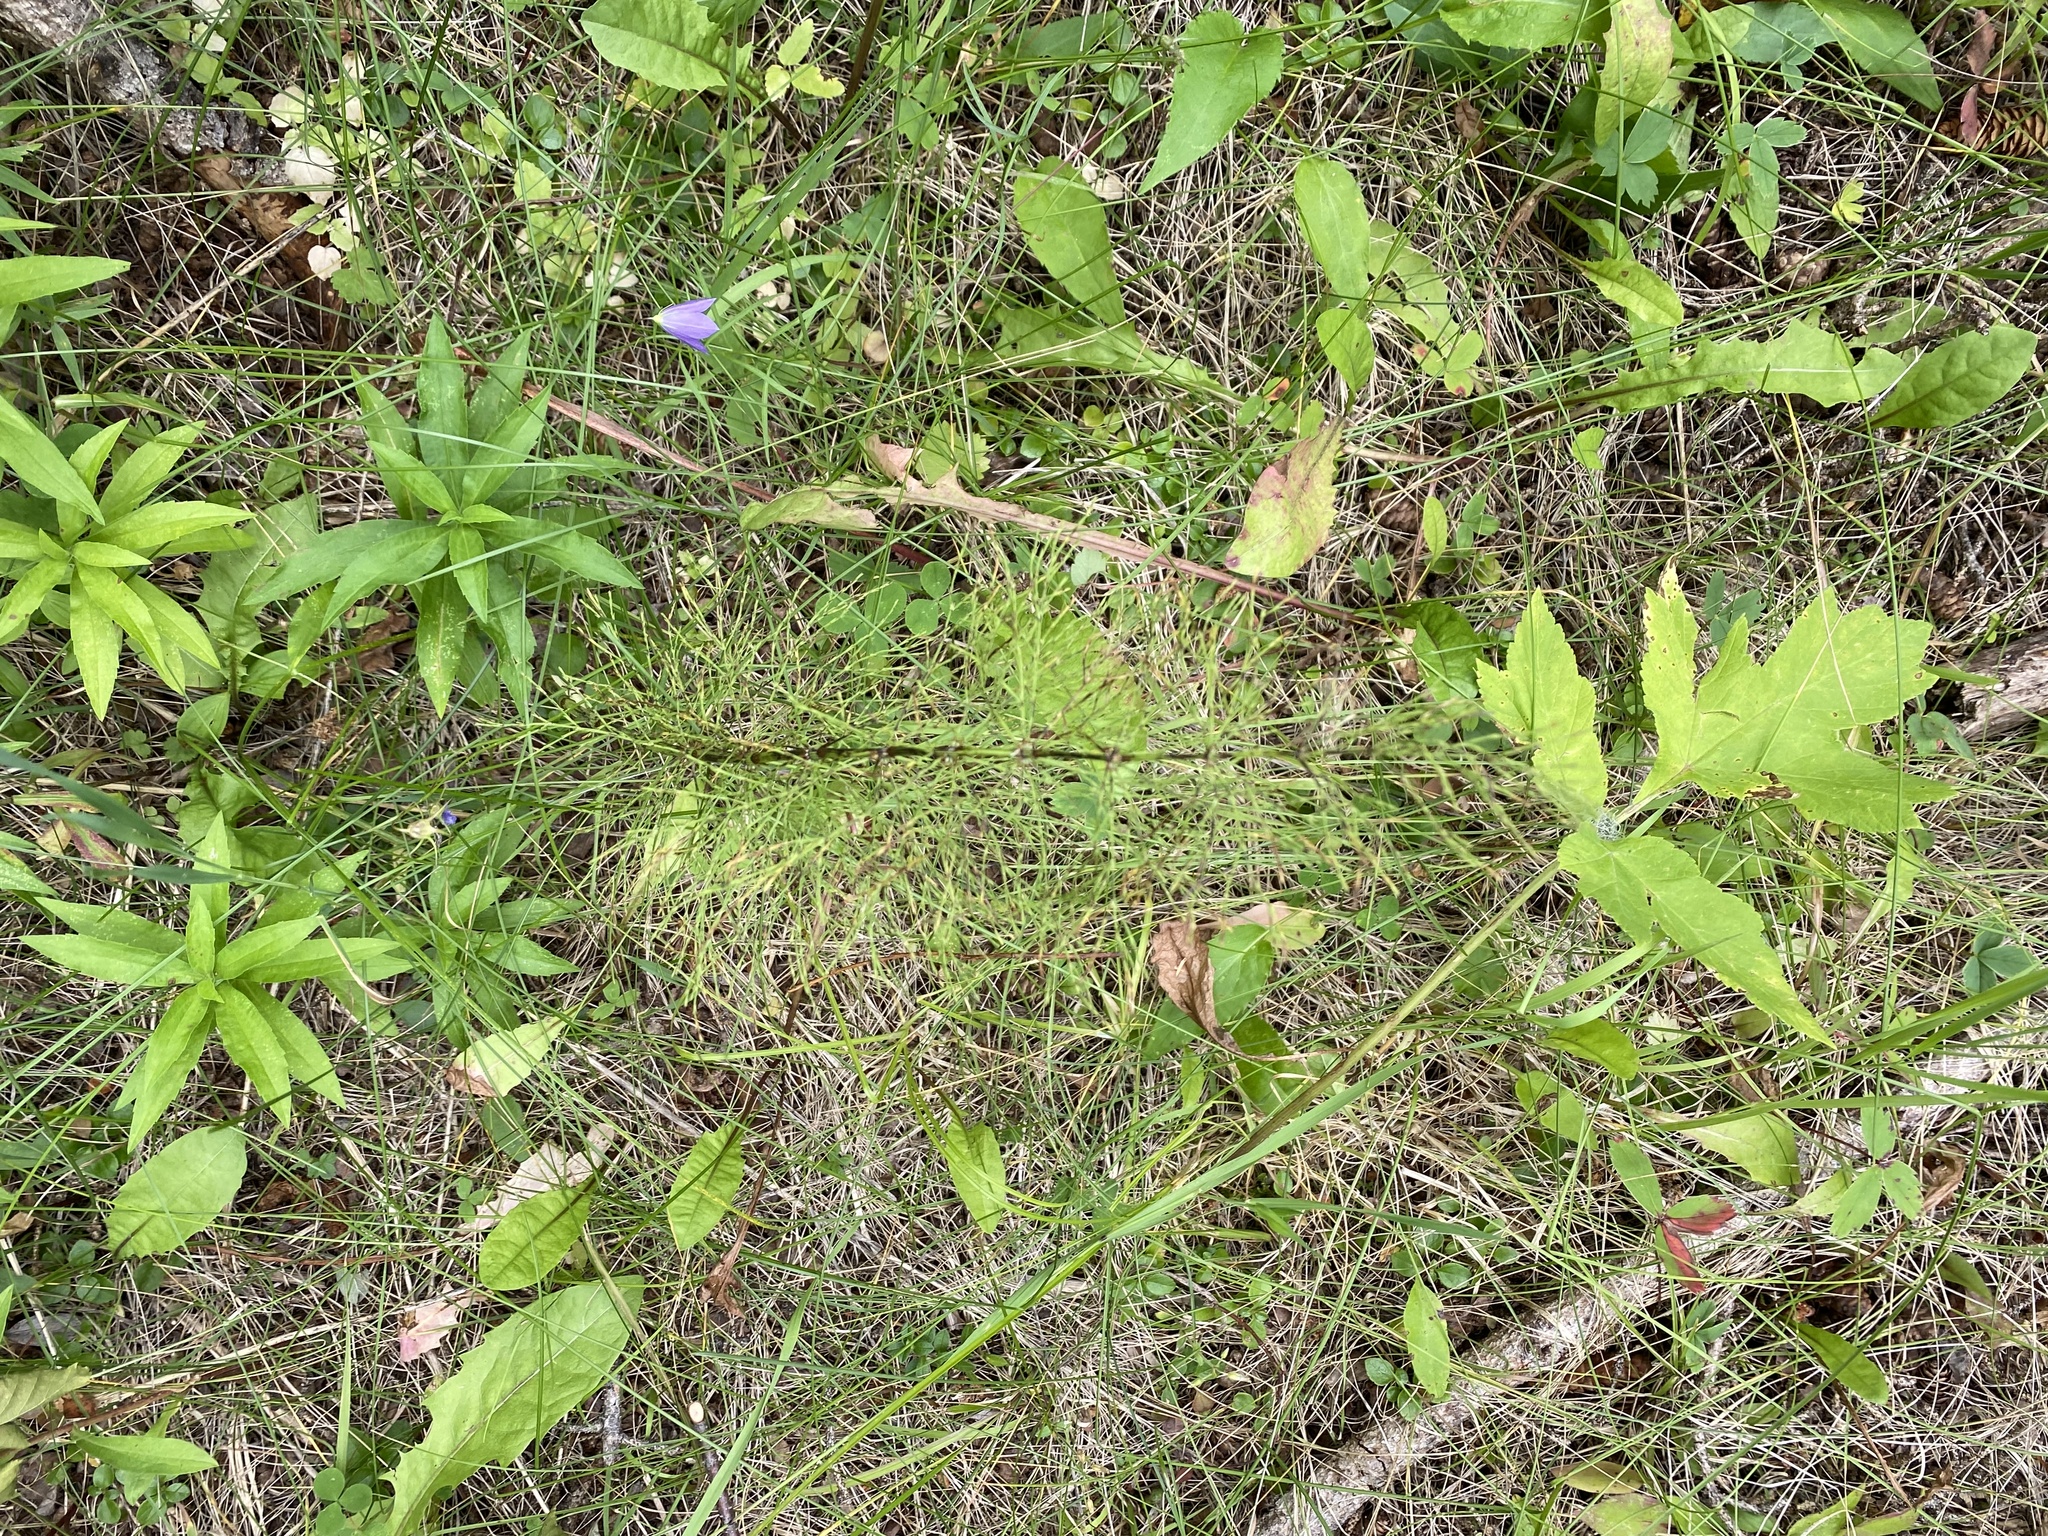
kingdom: Plantae
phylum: Tracheophyta
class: Polypodiopsida
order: Equisetales
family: Equisetaceae
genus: Equisetum
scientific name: Equisetum sylvaticum
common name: Wood horsetail
